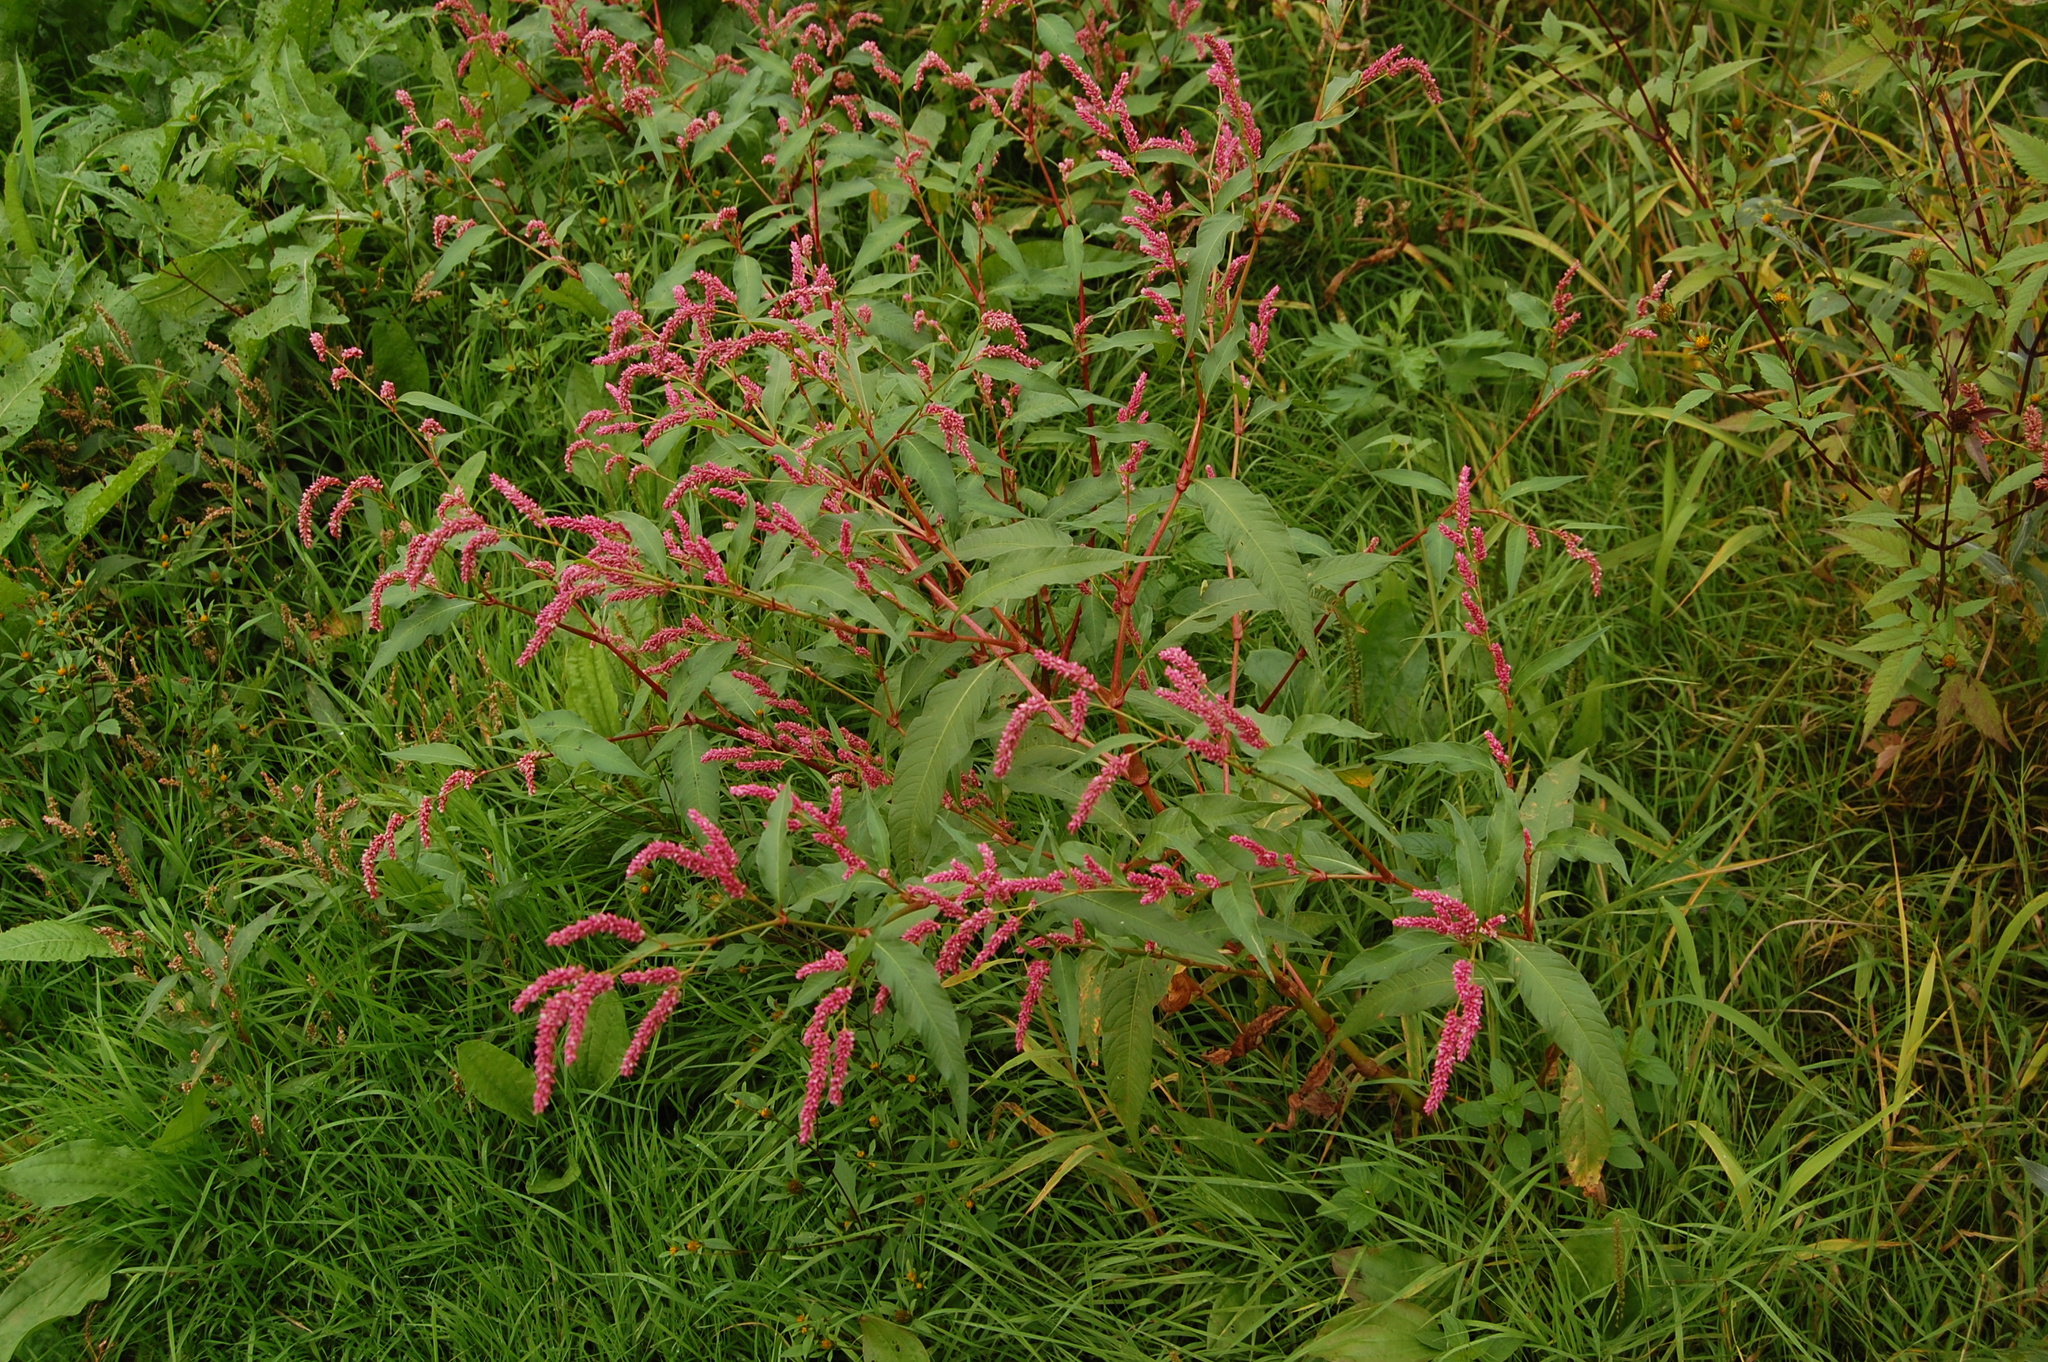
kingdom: Plantae
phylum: Tracheophyta
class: Magnoliopsida
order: Caryophyllales
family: Polygonaceae
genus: Persicaria
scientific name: Persicaria lapathifolia
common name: Curlytop knotweed
